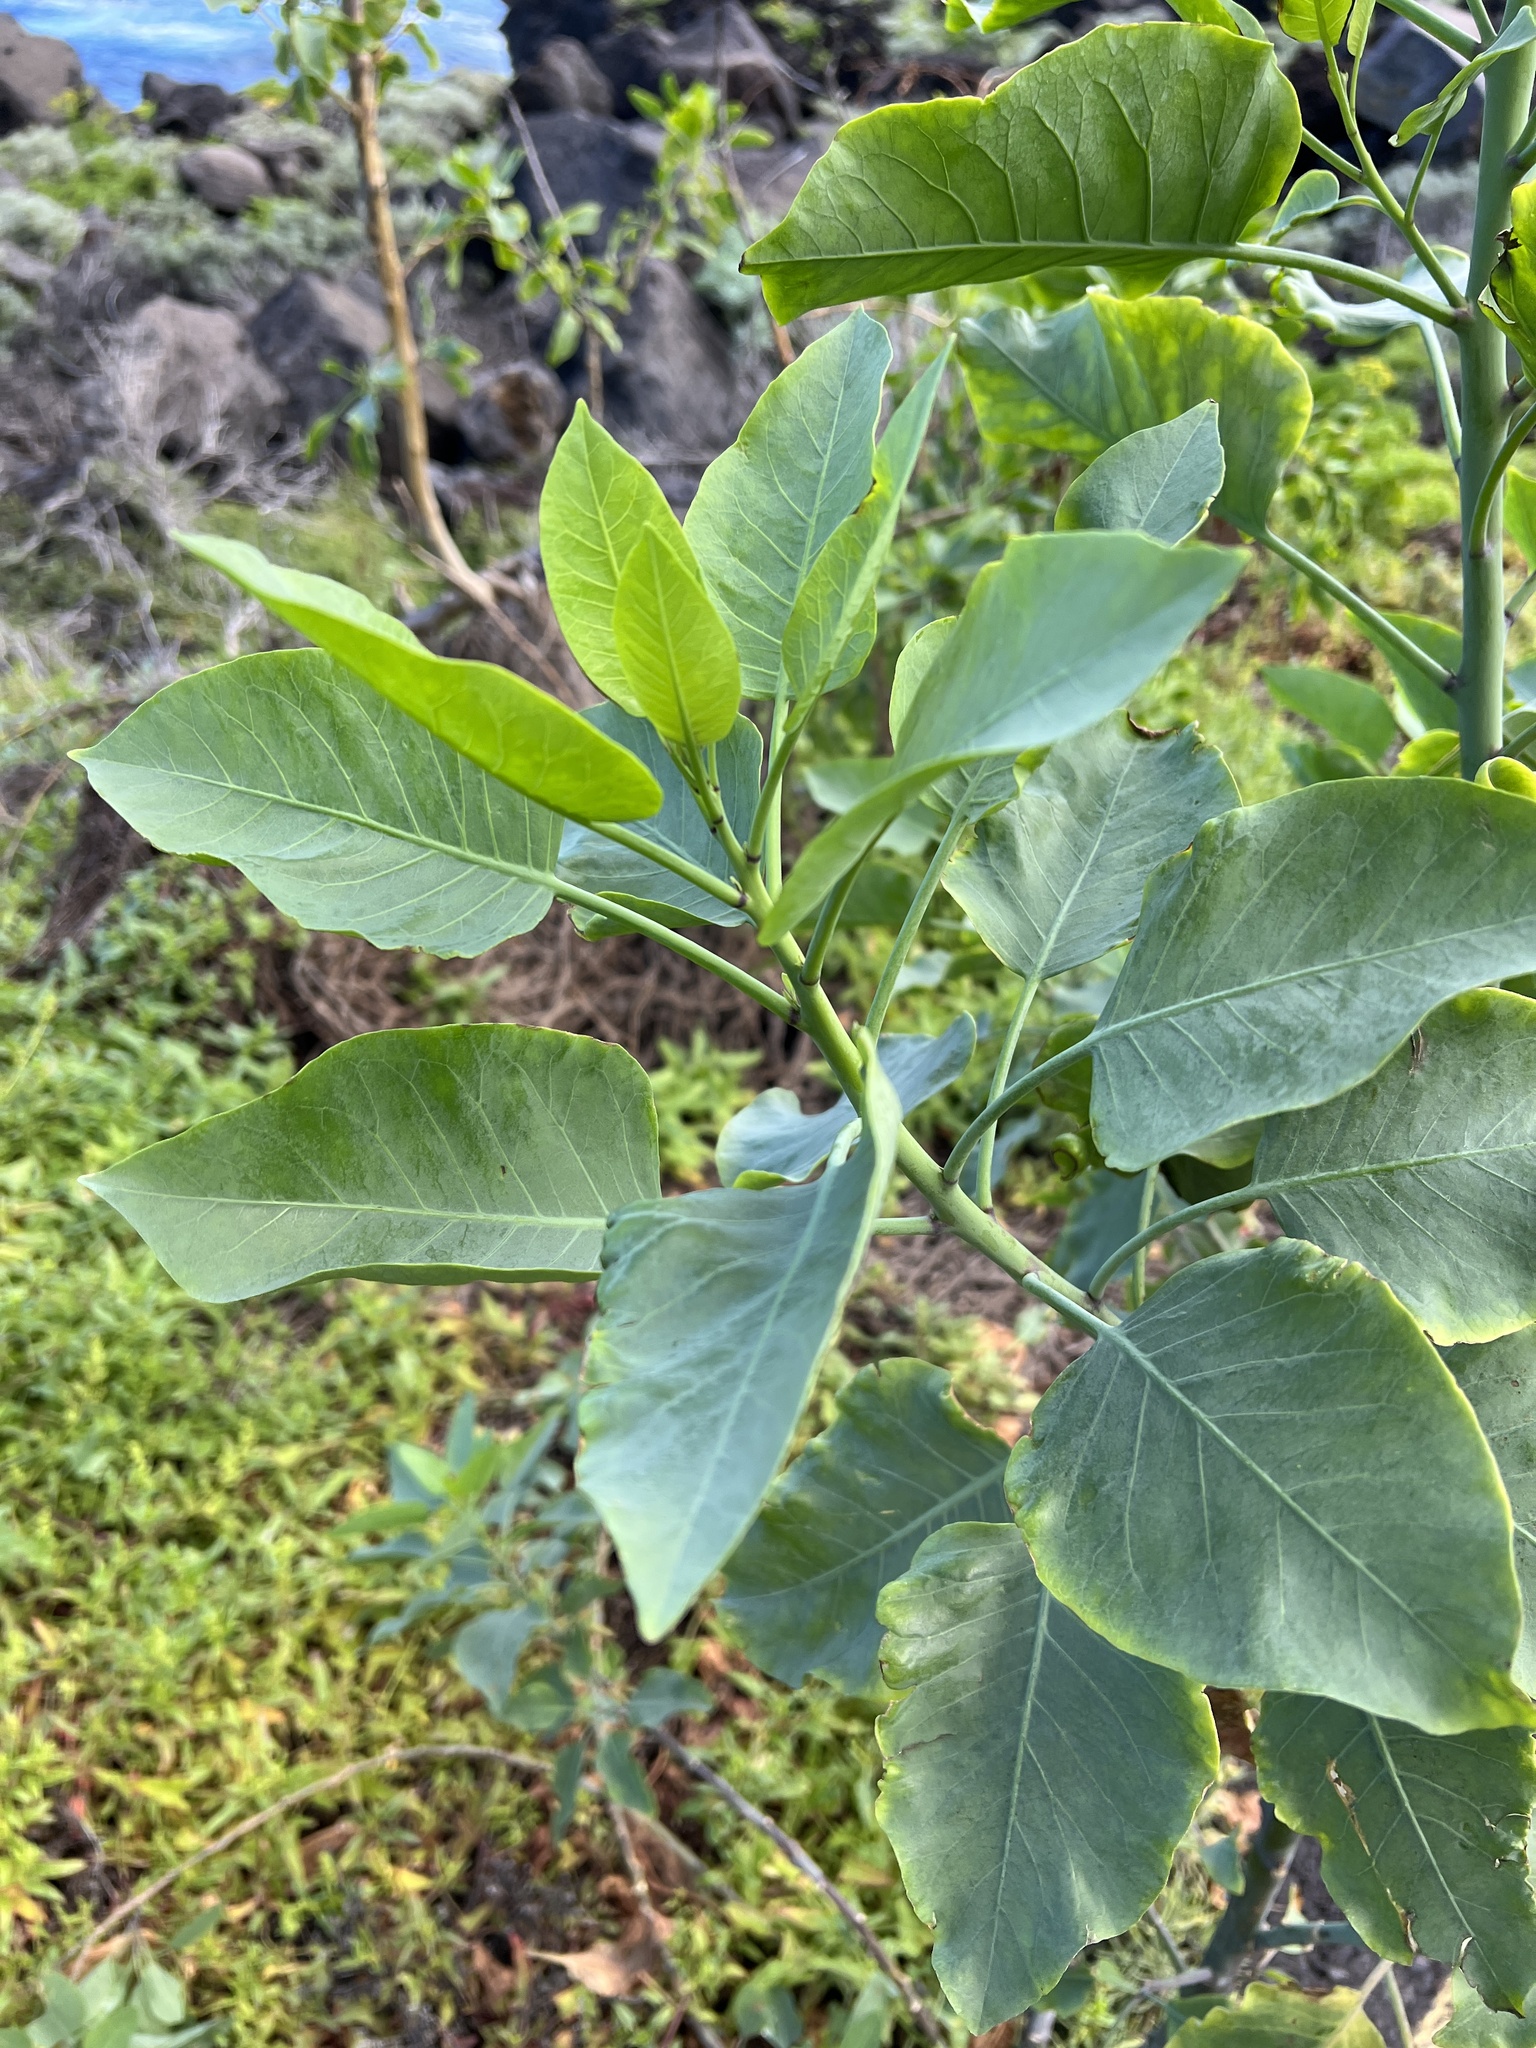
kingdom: Plantae
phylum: Tracheophyta
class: Magnoliopsida
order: Solanales
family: Solanaceae
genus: Nicotiana
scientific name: Nicotiana glauca
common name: Tree tobacco
